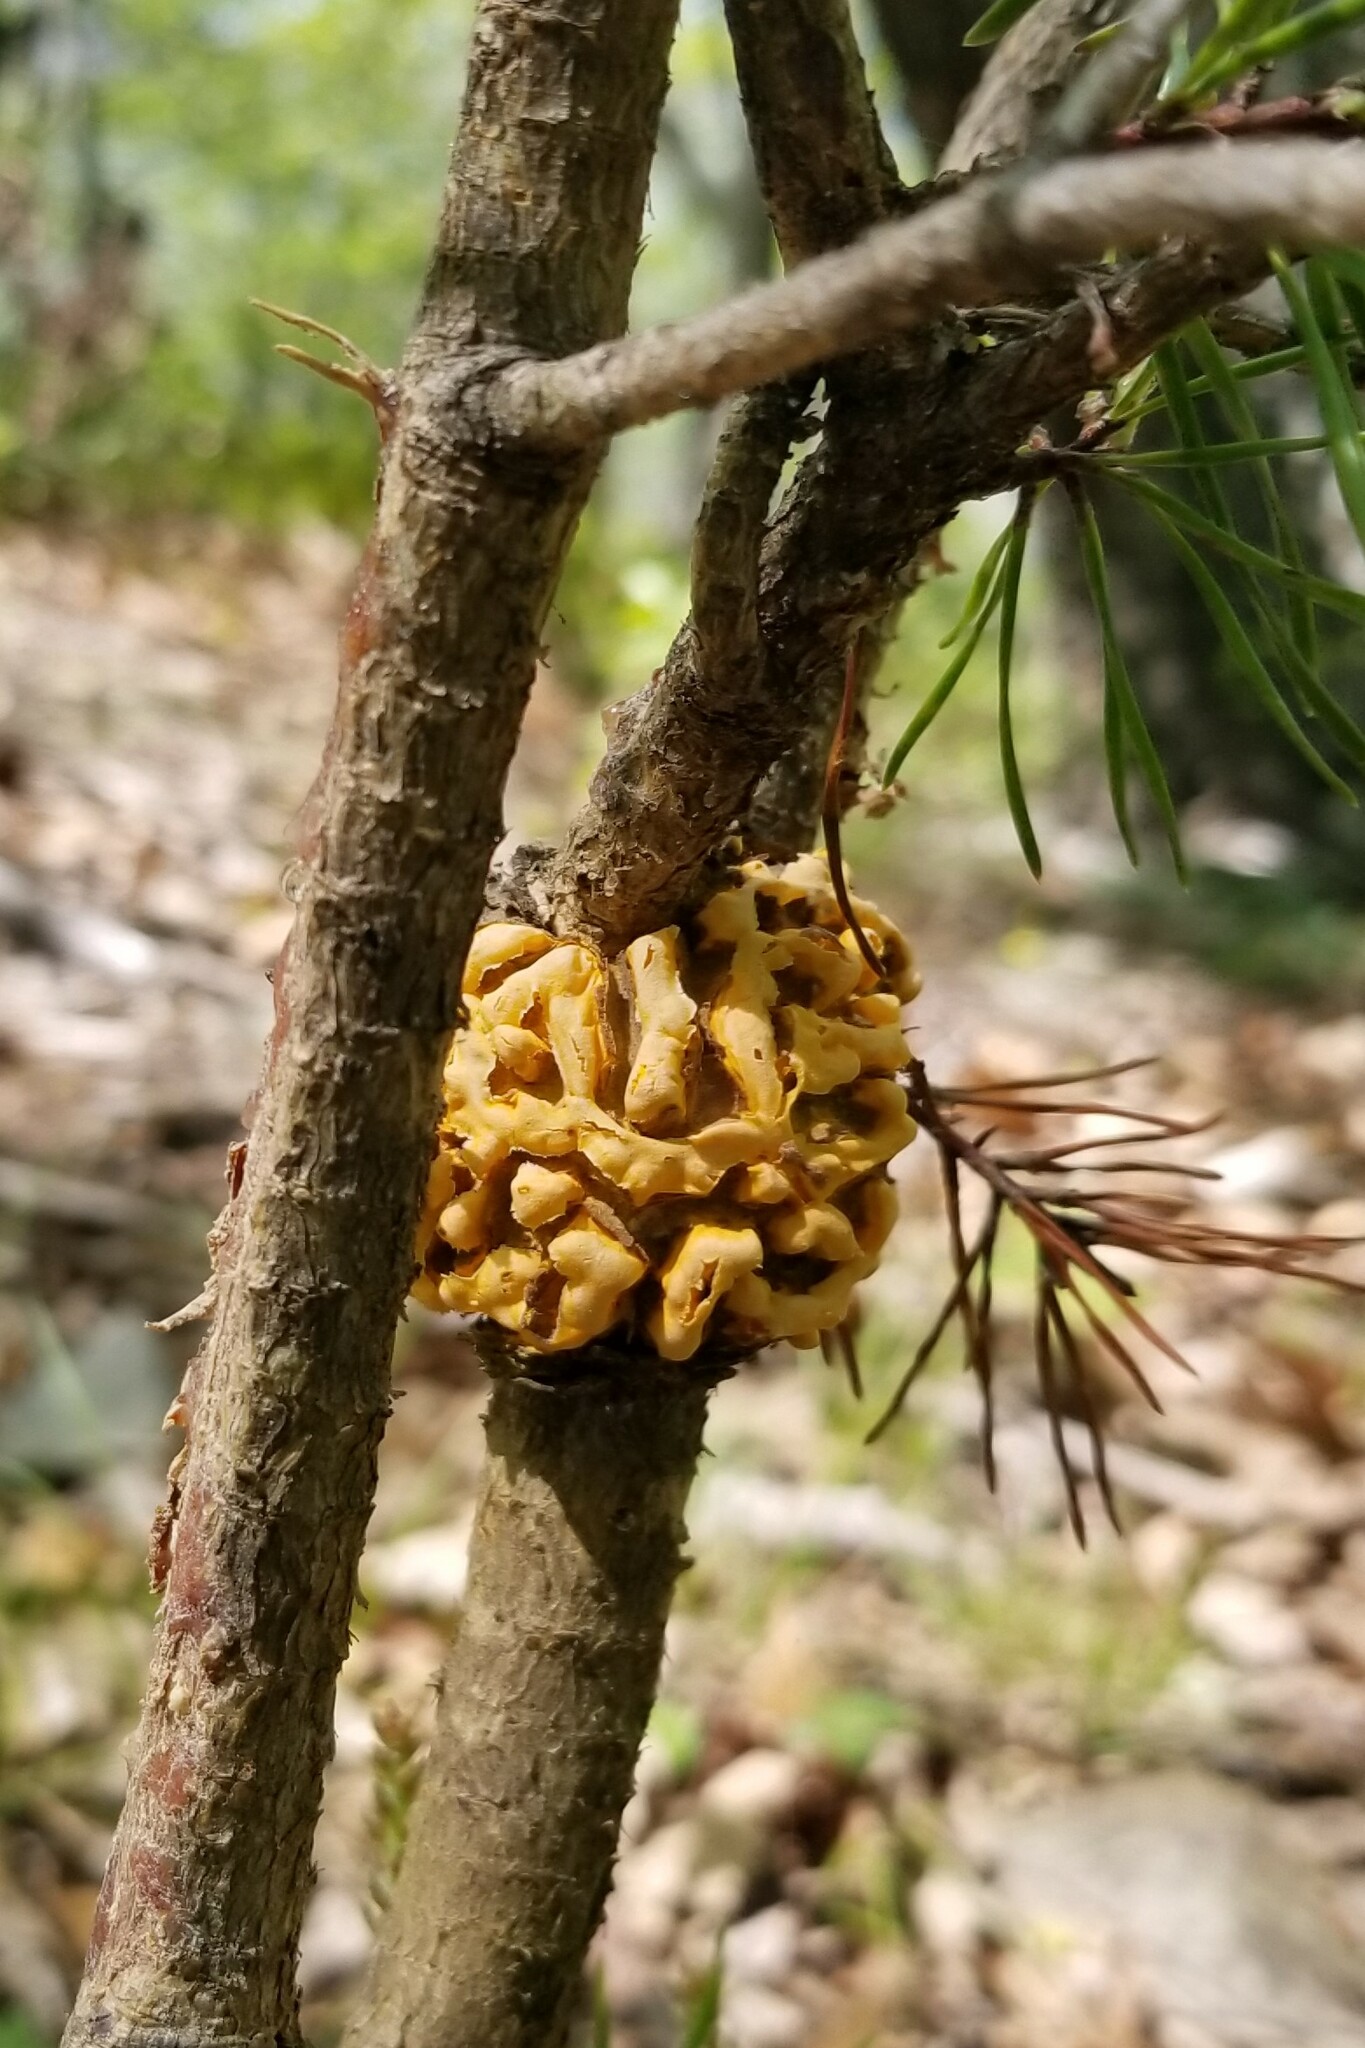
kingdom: Fungi
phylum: Basidiomycota
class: Pucciniomycetes
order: Pucciniales
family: Cronartiaceae
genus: Cronartium
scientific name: Cronartium quercuum
